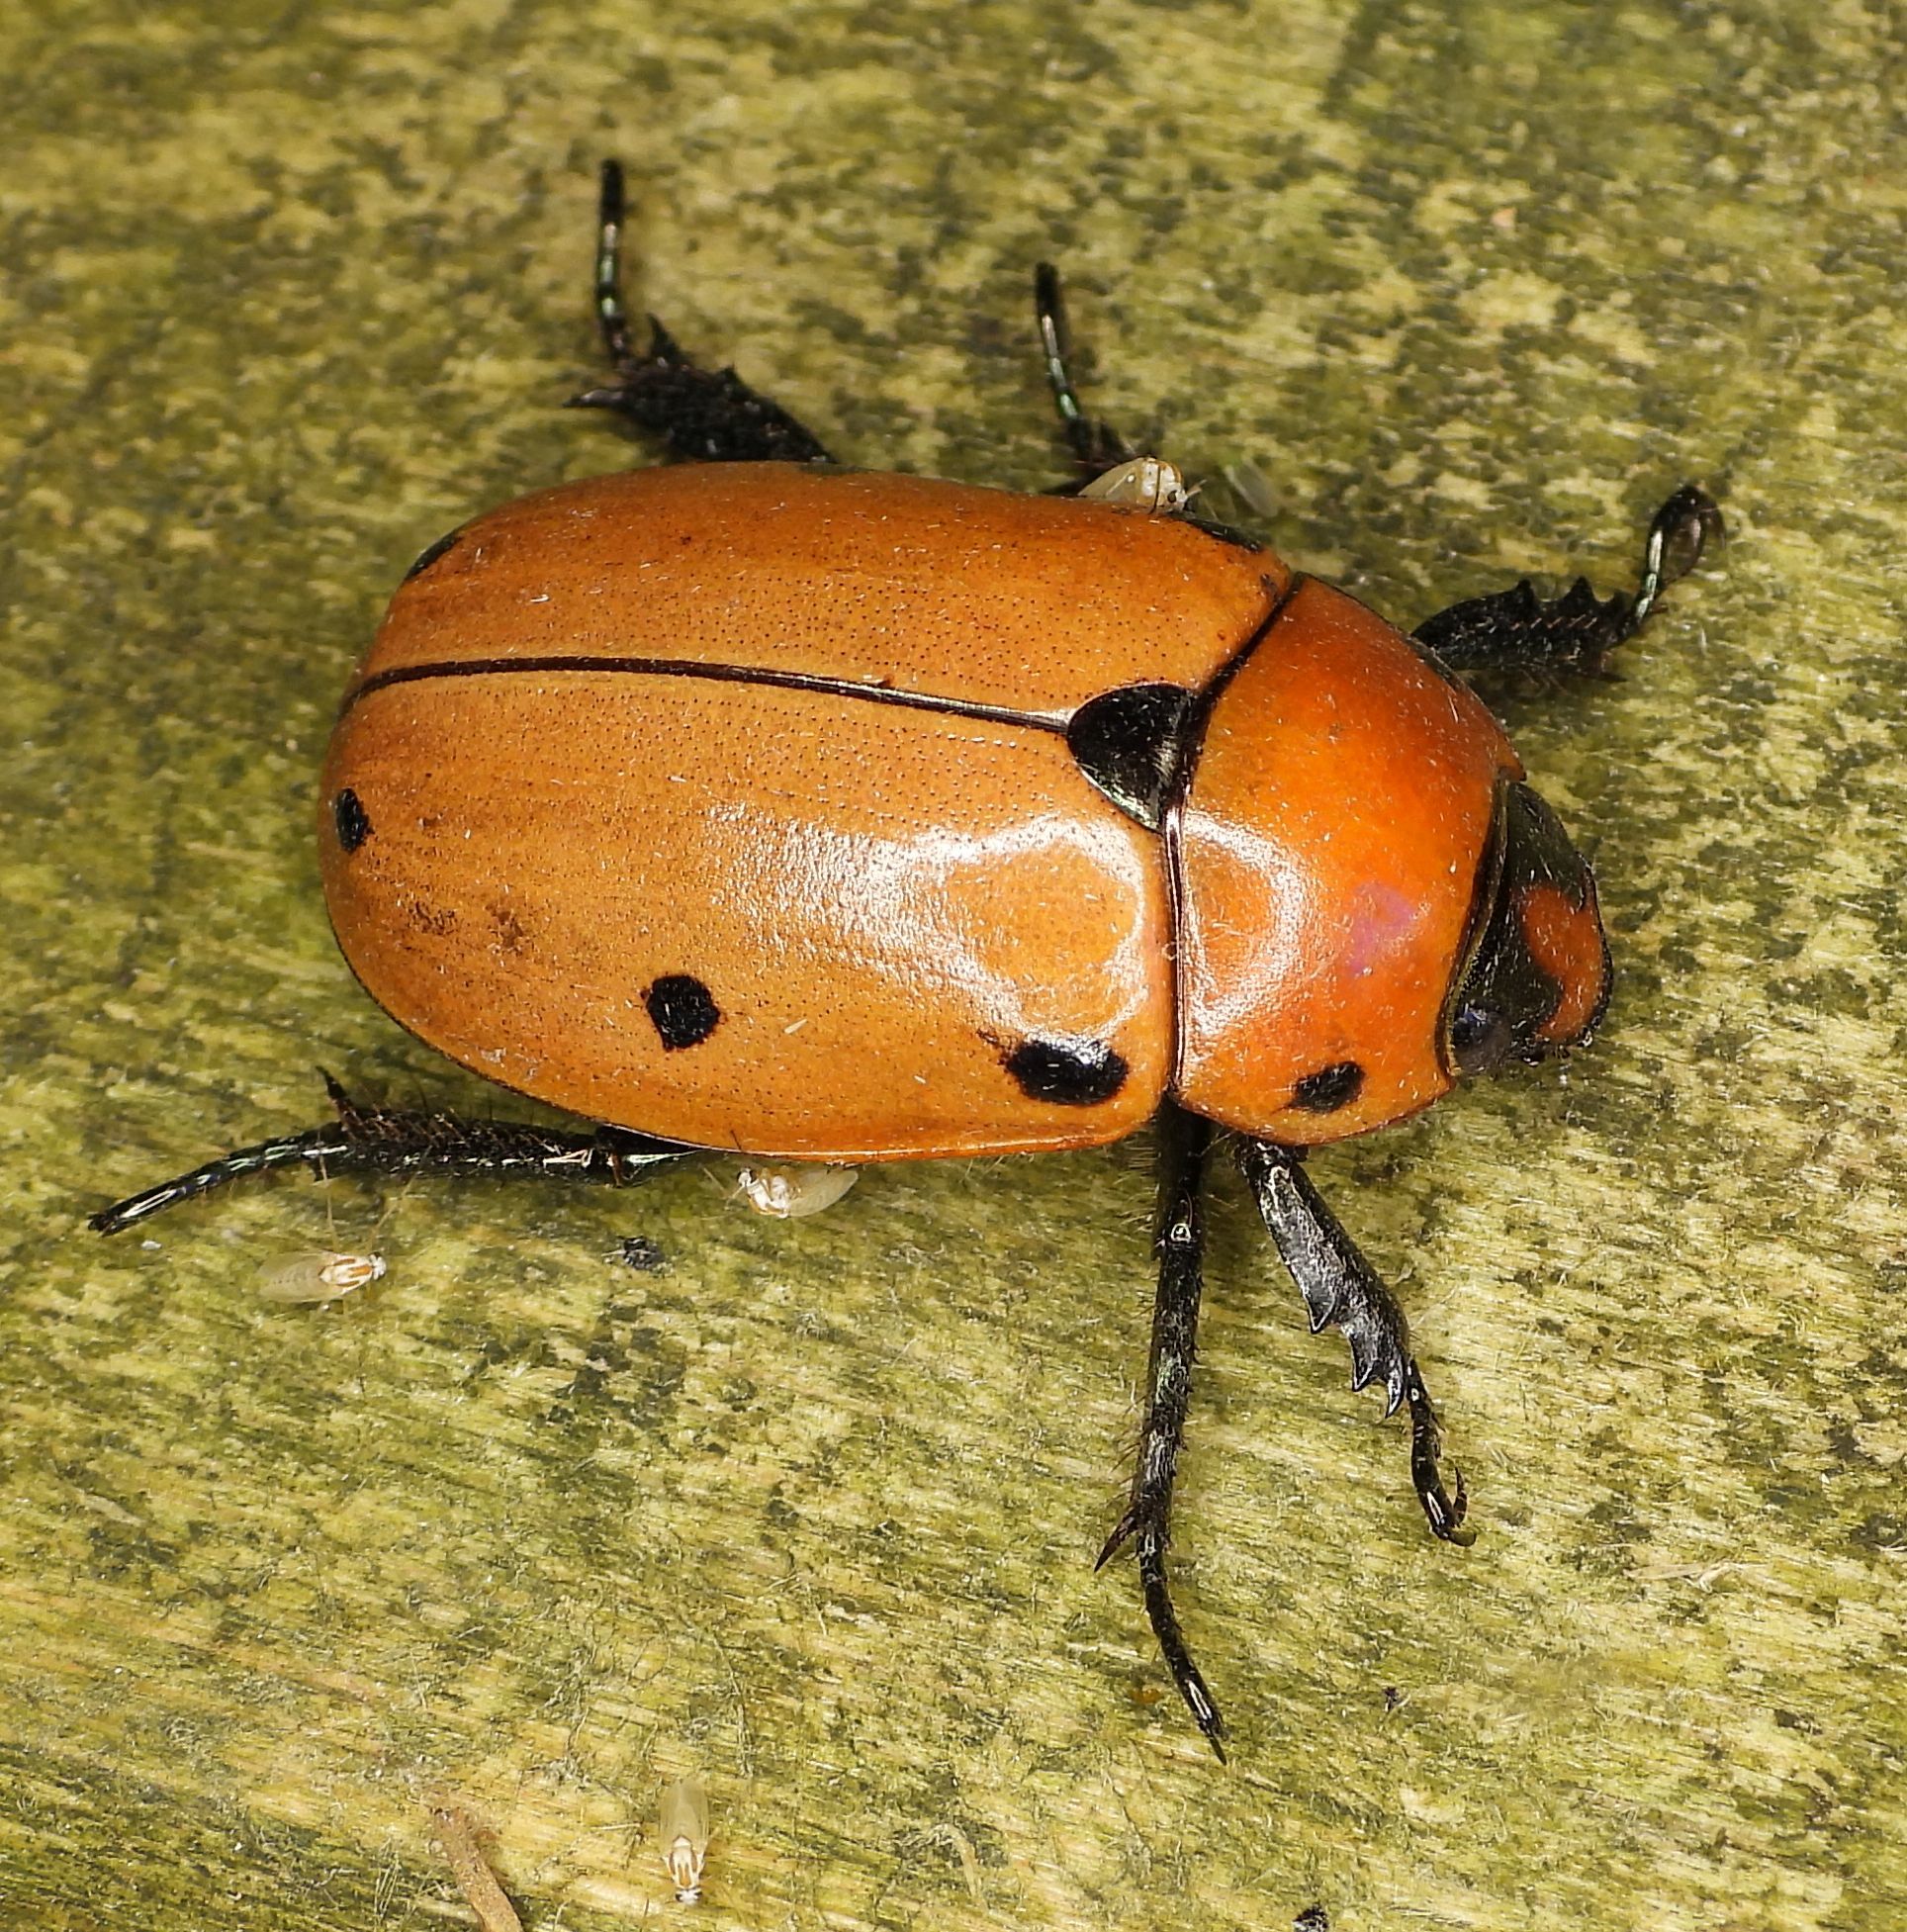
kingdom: Animalia
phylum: Arthropoda
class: Insecta
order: Coleoptera
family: Scarabaeidae
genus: Pelidnota
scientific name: Pelidnota punctata
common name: Grapevine beetle
